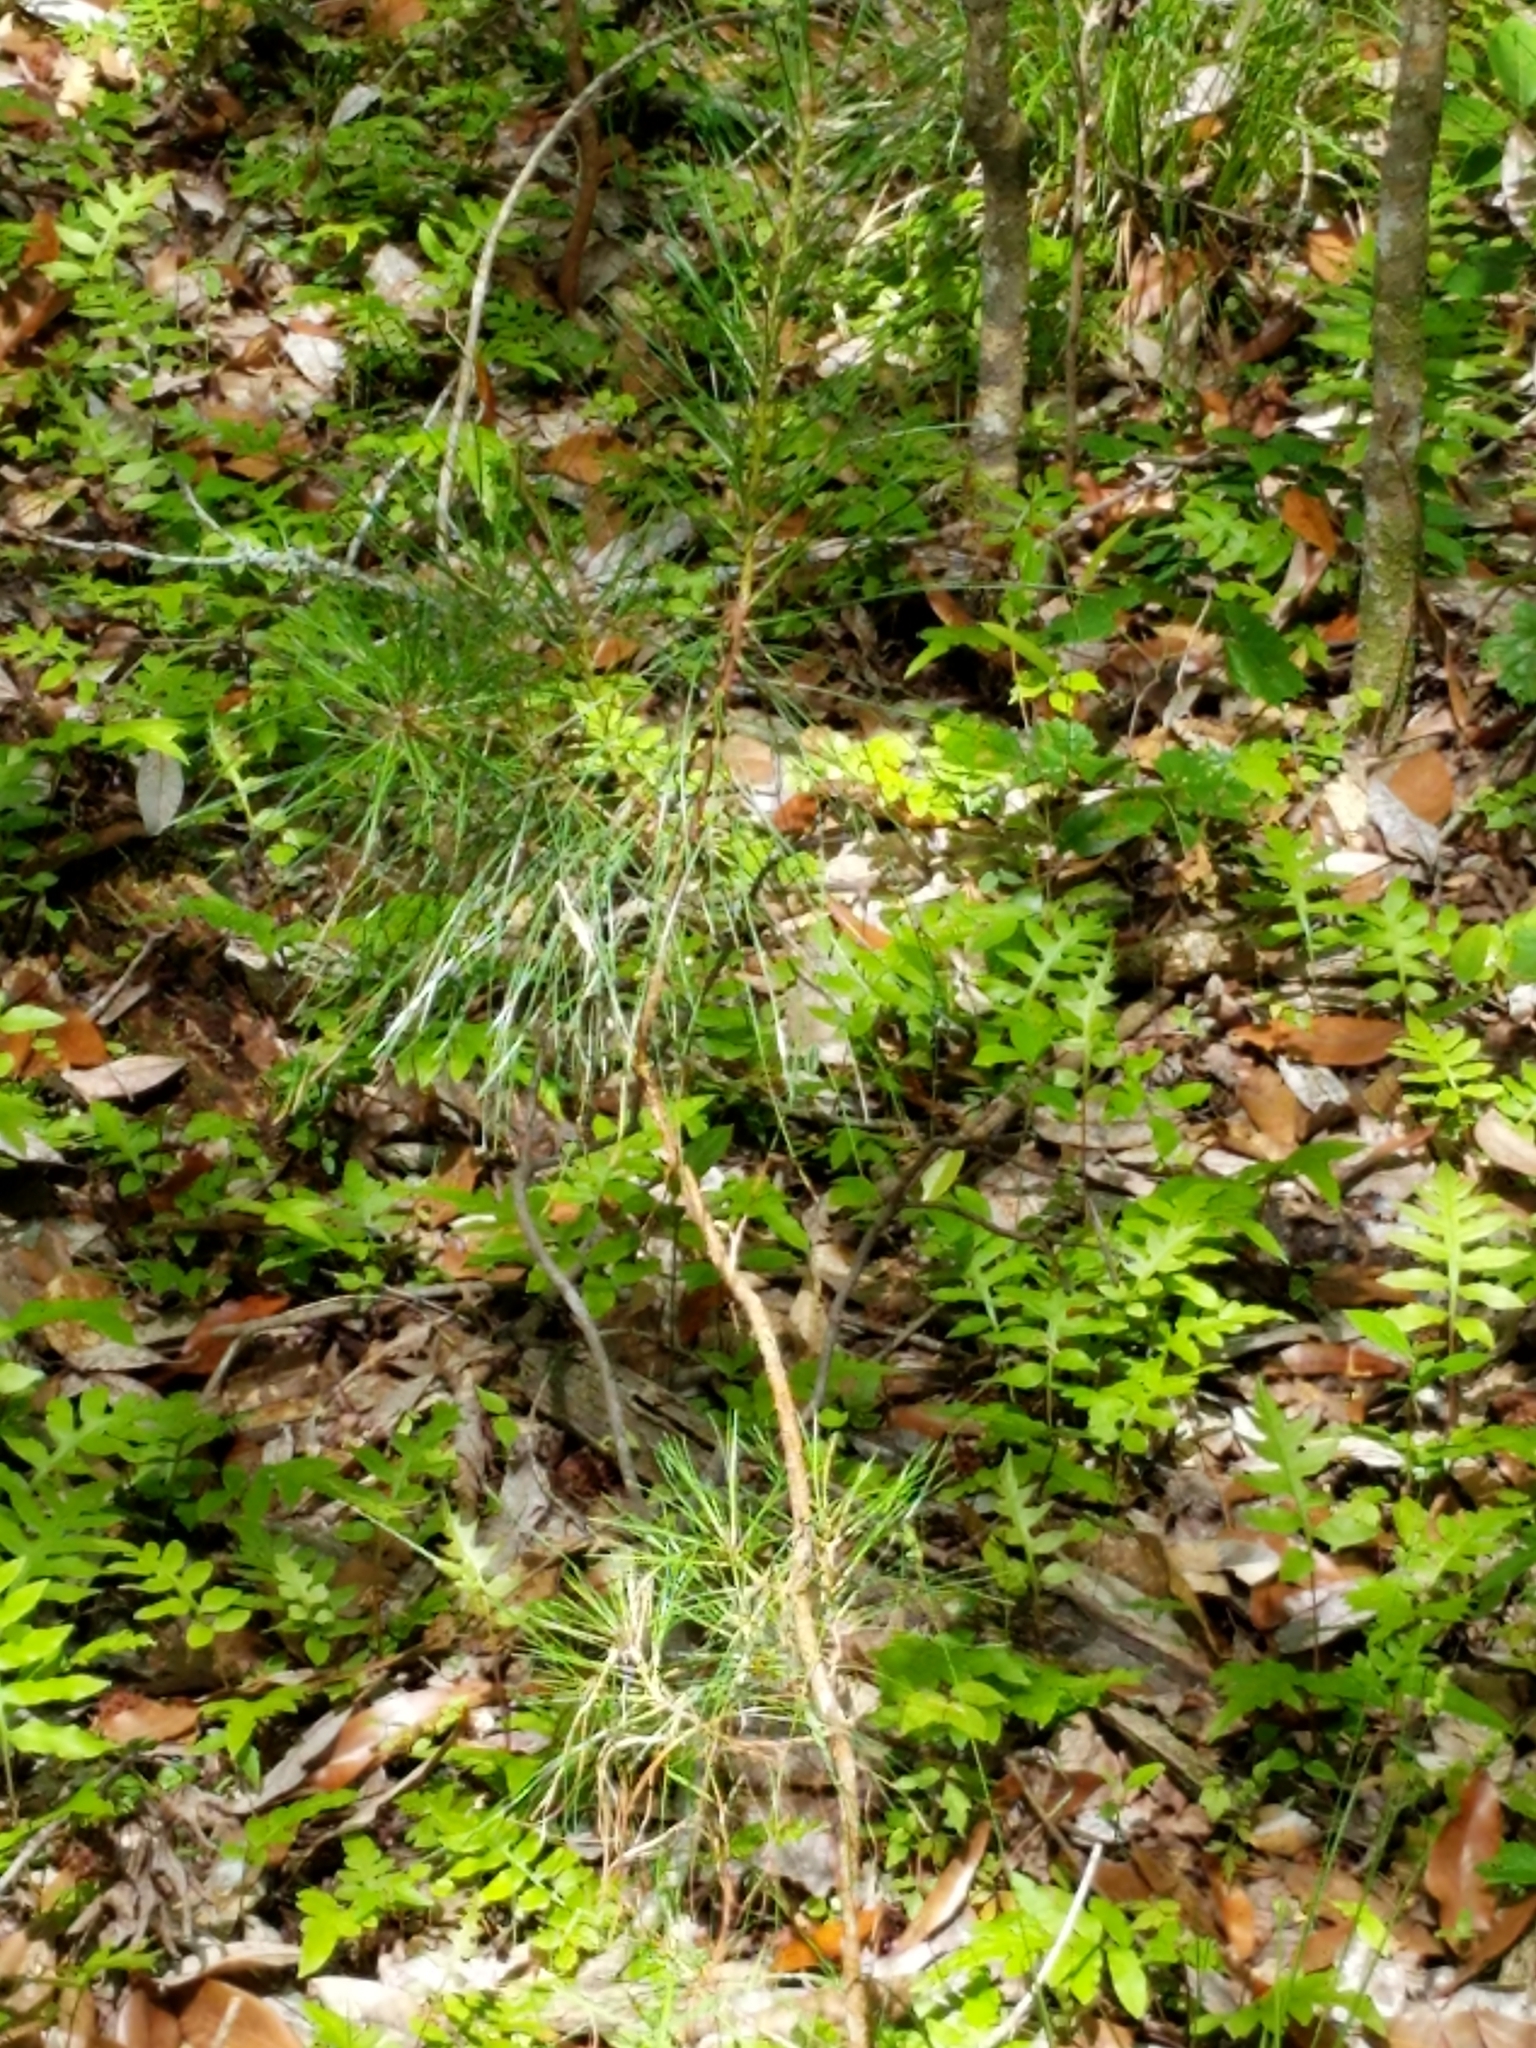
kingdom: Plantae
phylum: Tracheophyta
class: Pinopsida
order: Pinales
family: Pinaceae
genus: Pinus
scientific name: Pinus glabra
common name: Spruce pine
